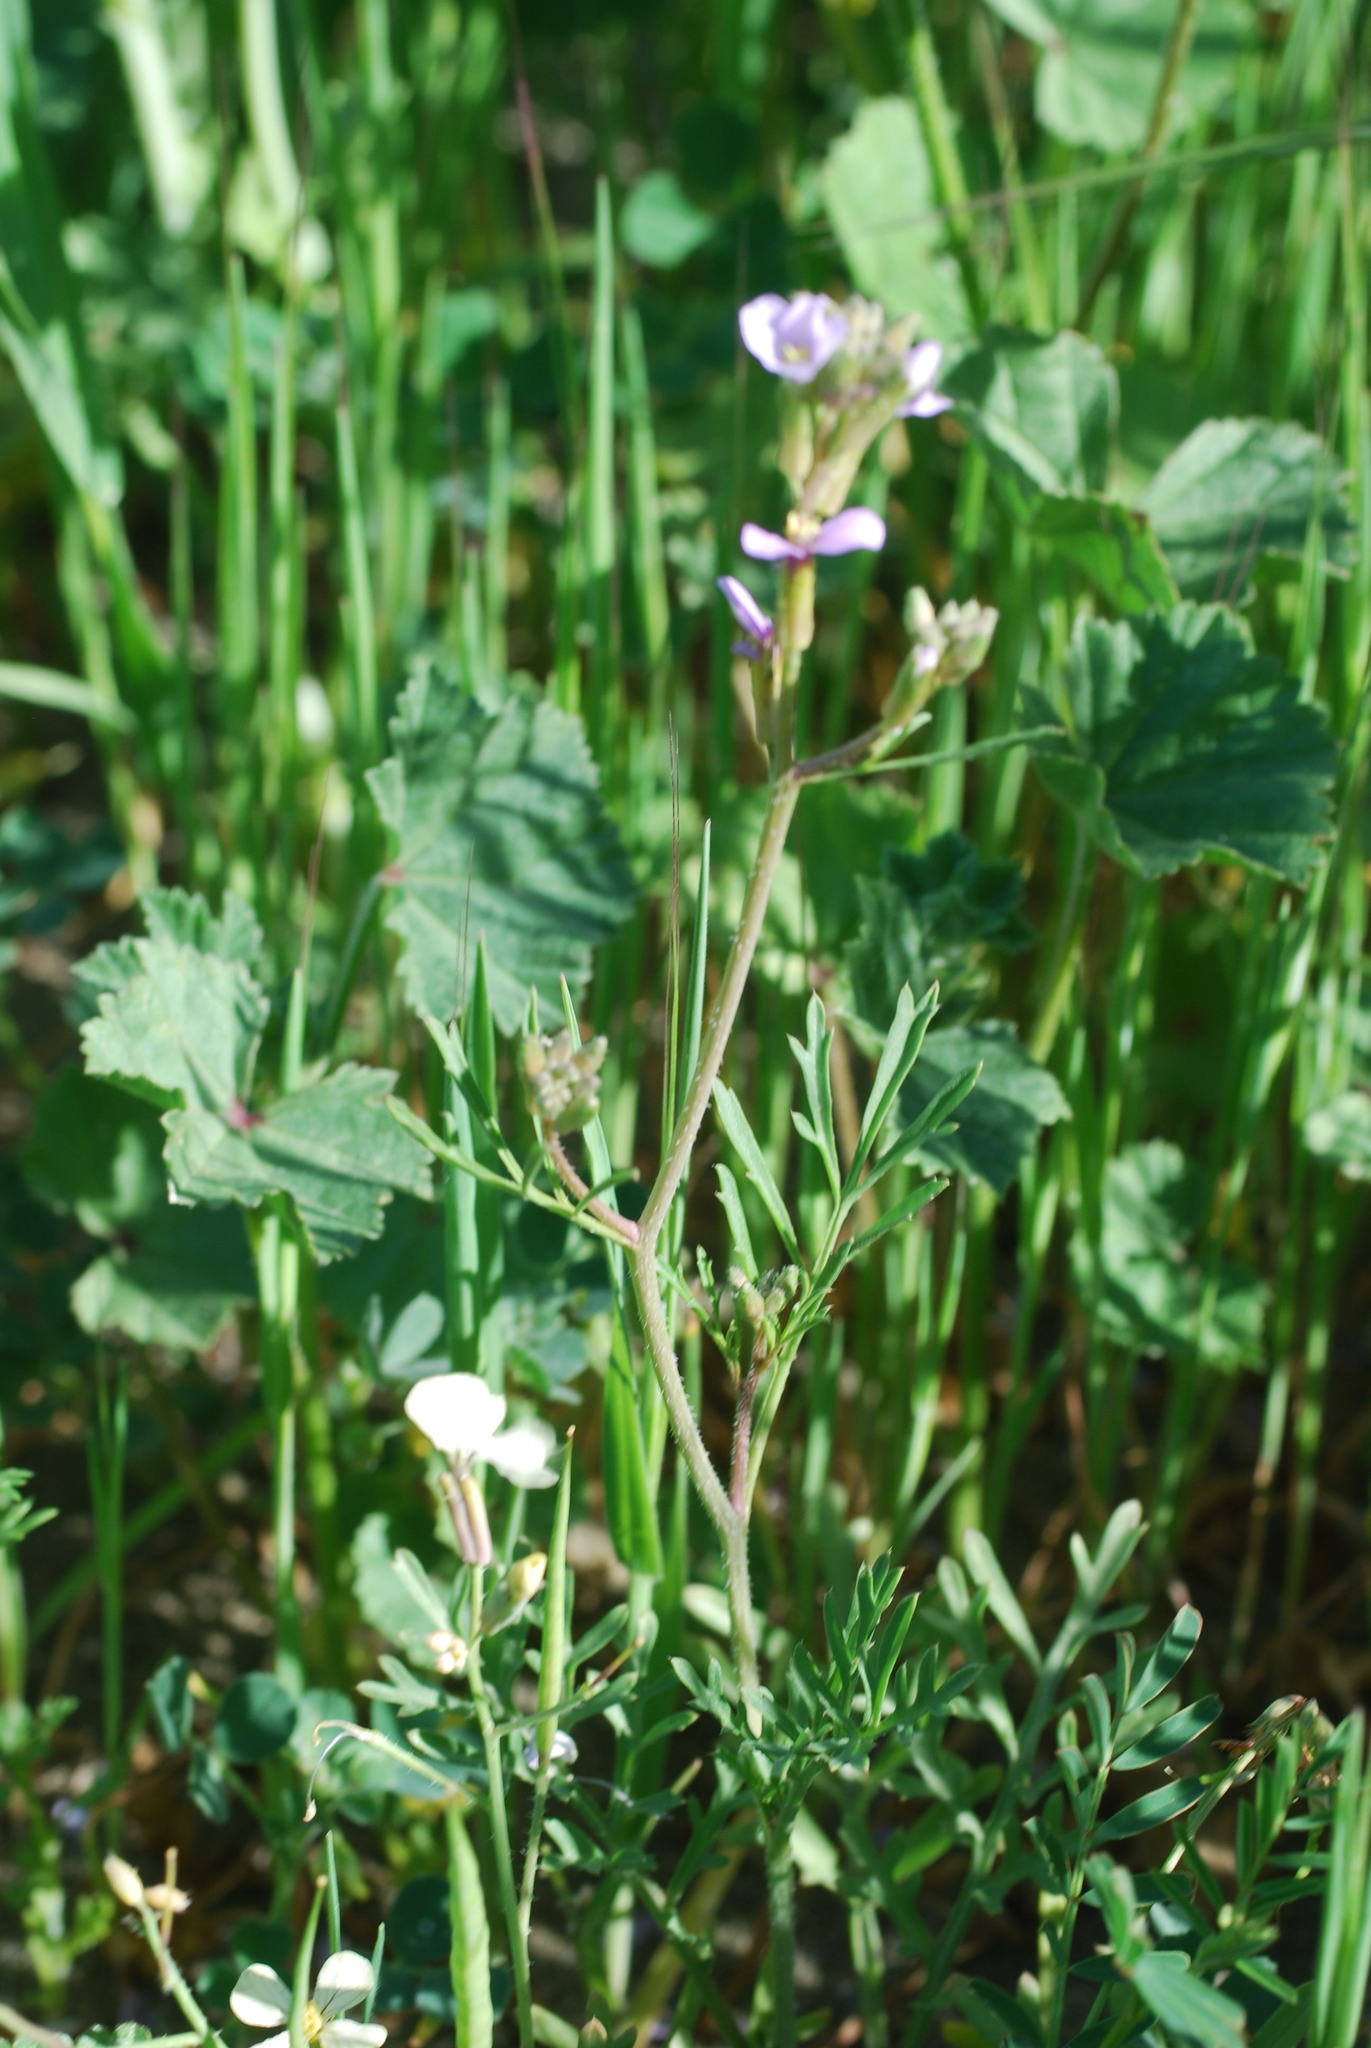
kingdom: Plantae
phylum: Tracheophyta
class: Magnoliopsida
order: Brassicales
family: Brassicaceae
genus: Erucaria
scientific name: Erucaria hispanica
